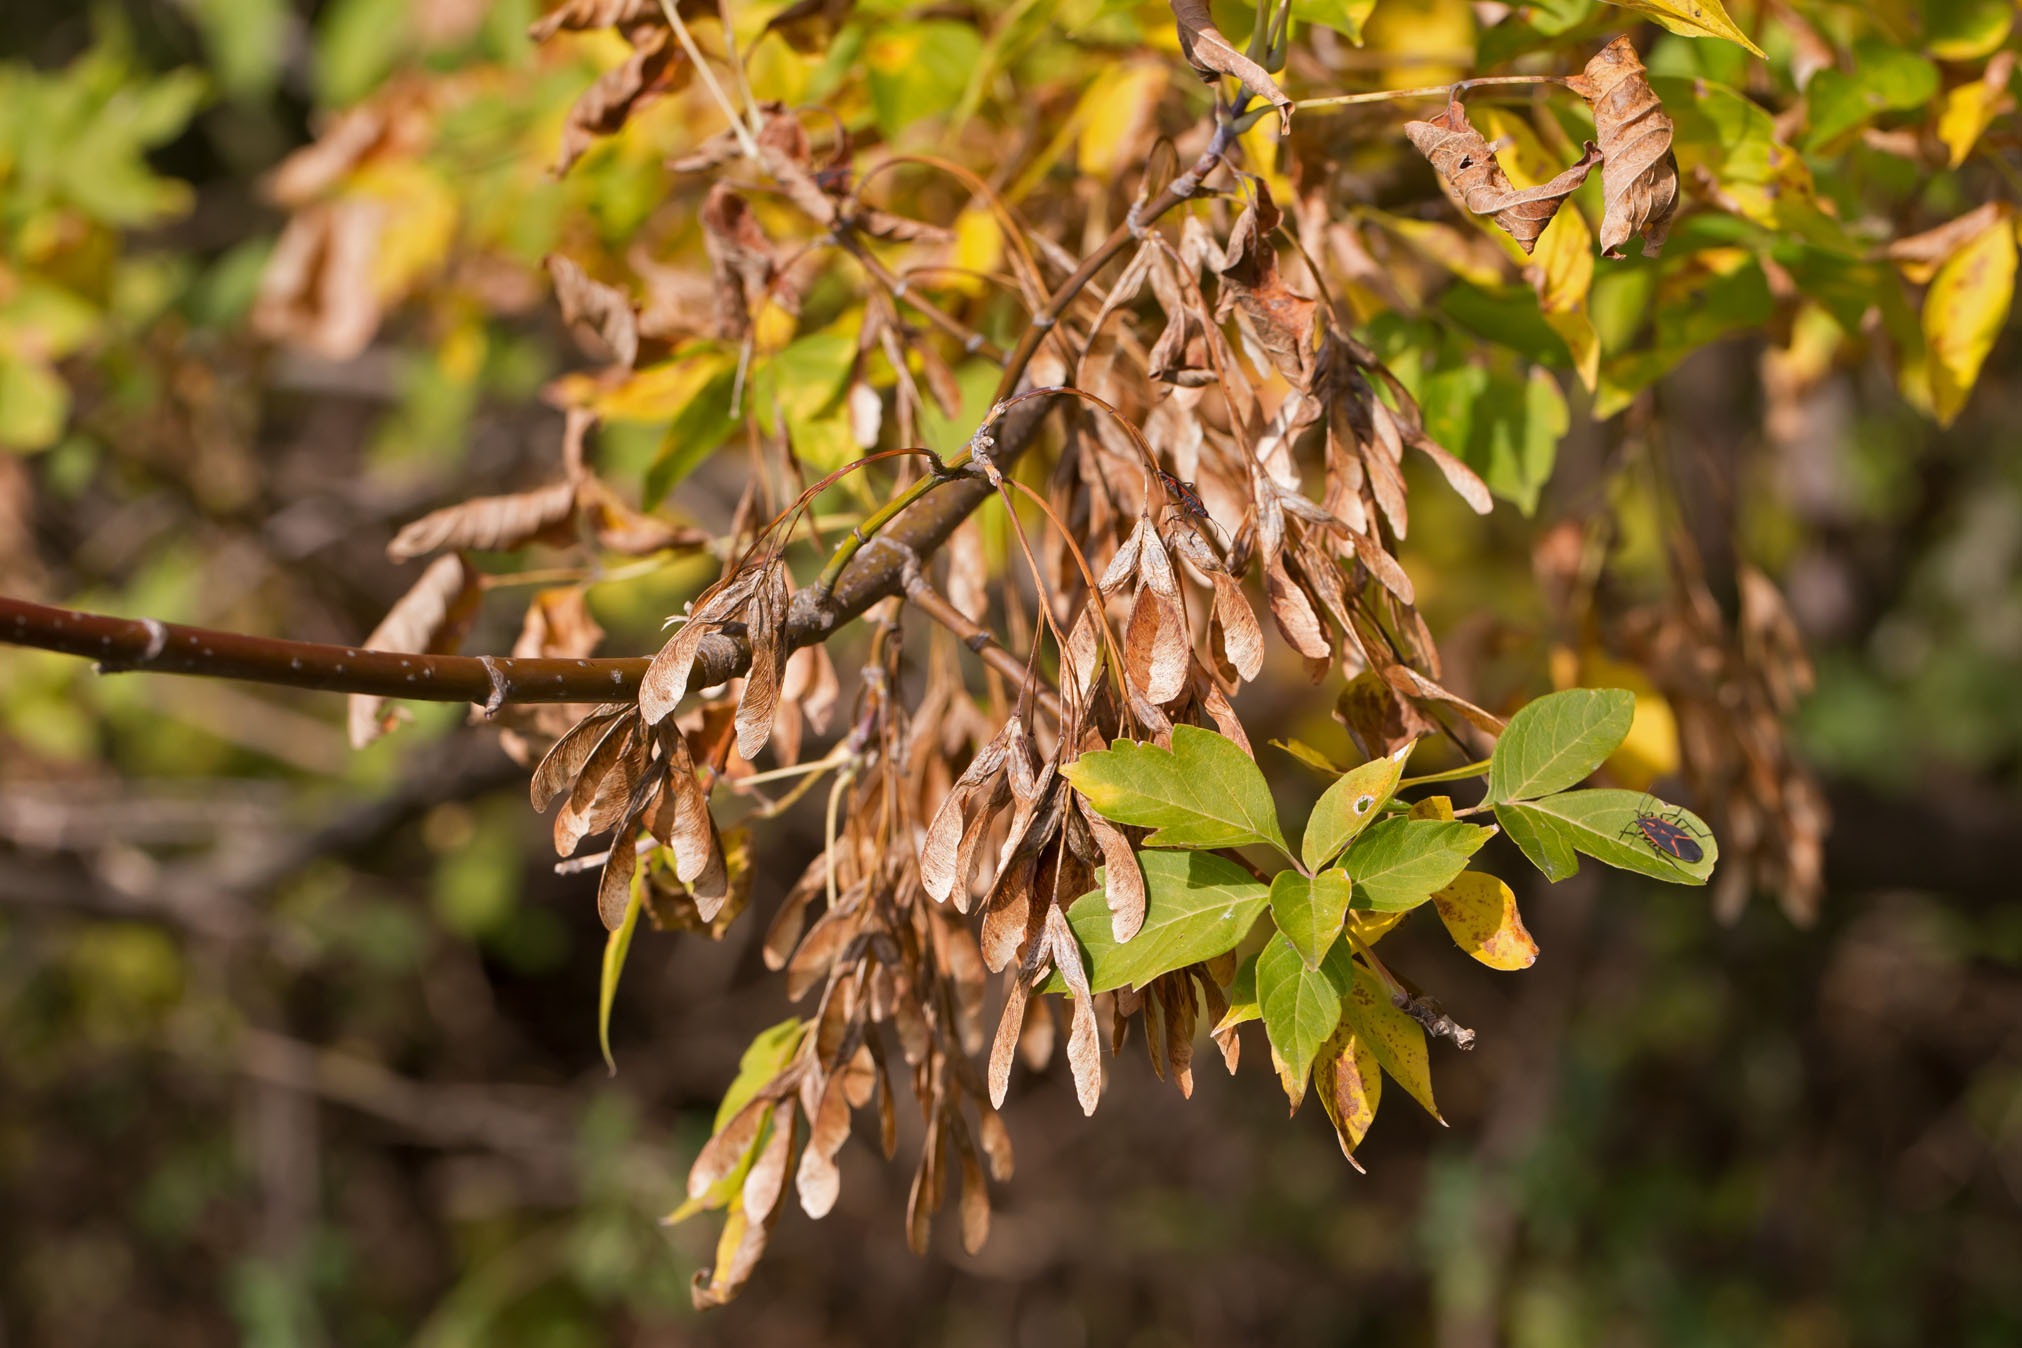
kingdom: Plantae
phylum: Tracheophyta
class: Magnoliopsida
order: Sapindales
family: Sapindaceae
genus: Acer
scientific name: Acer negundo
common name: Ashleaf maple
